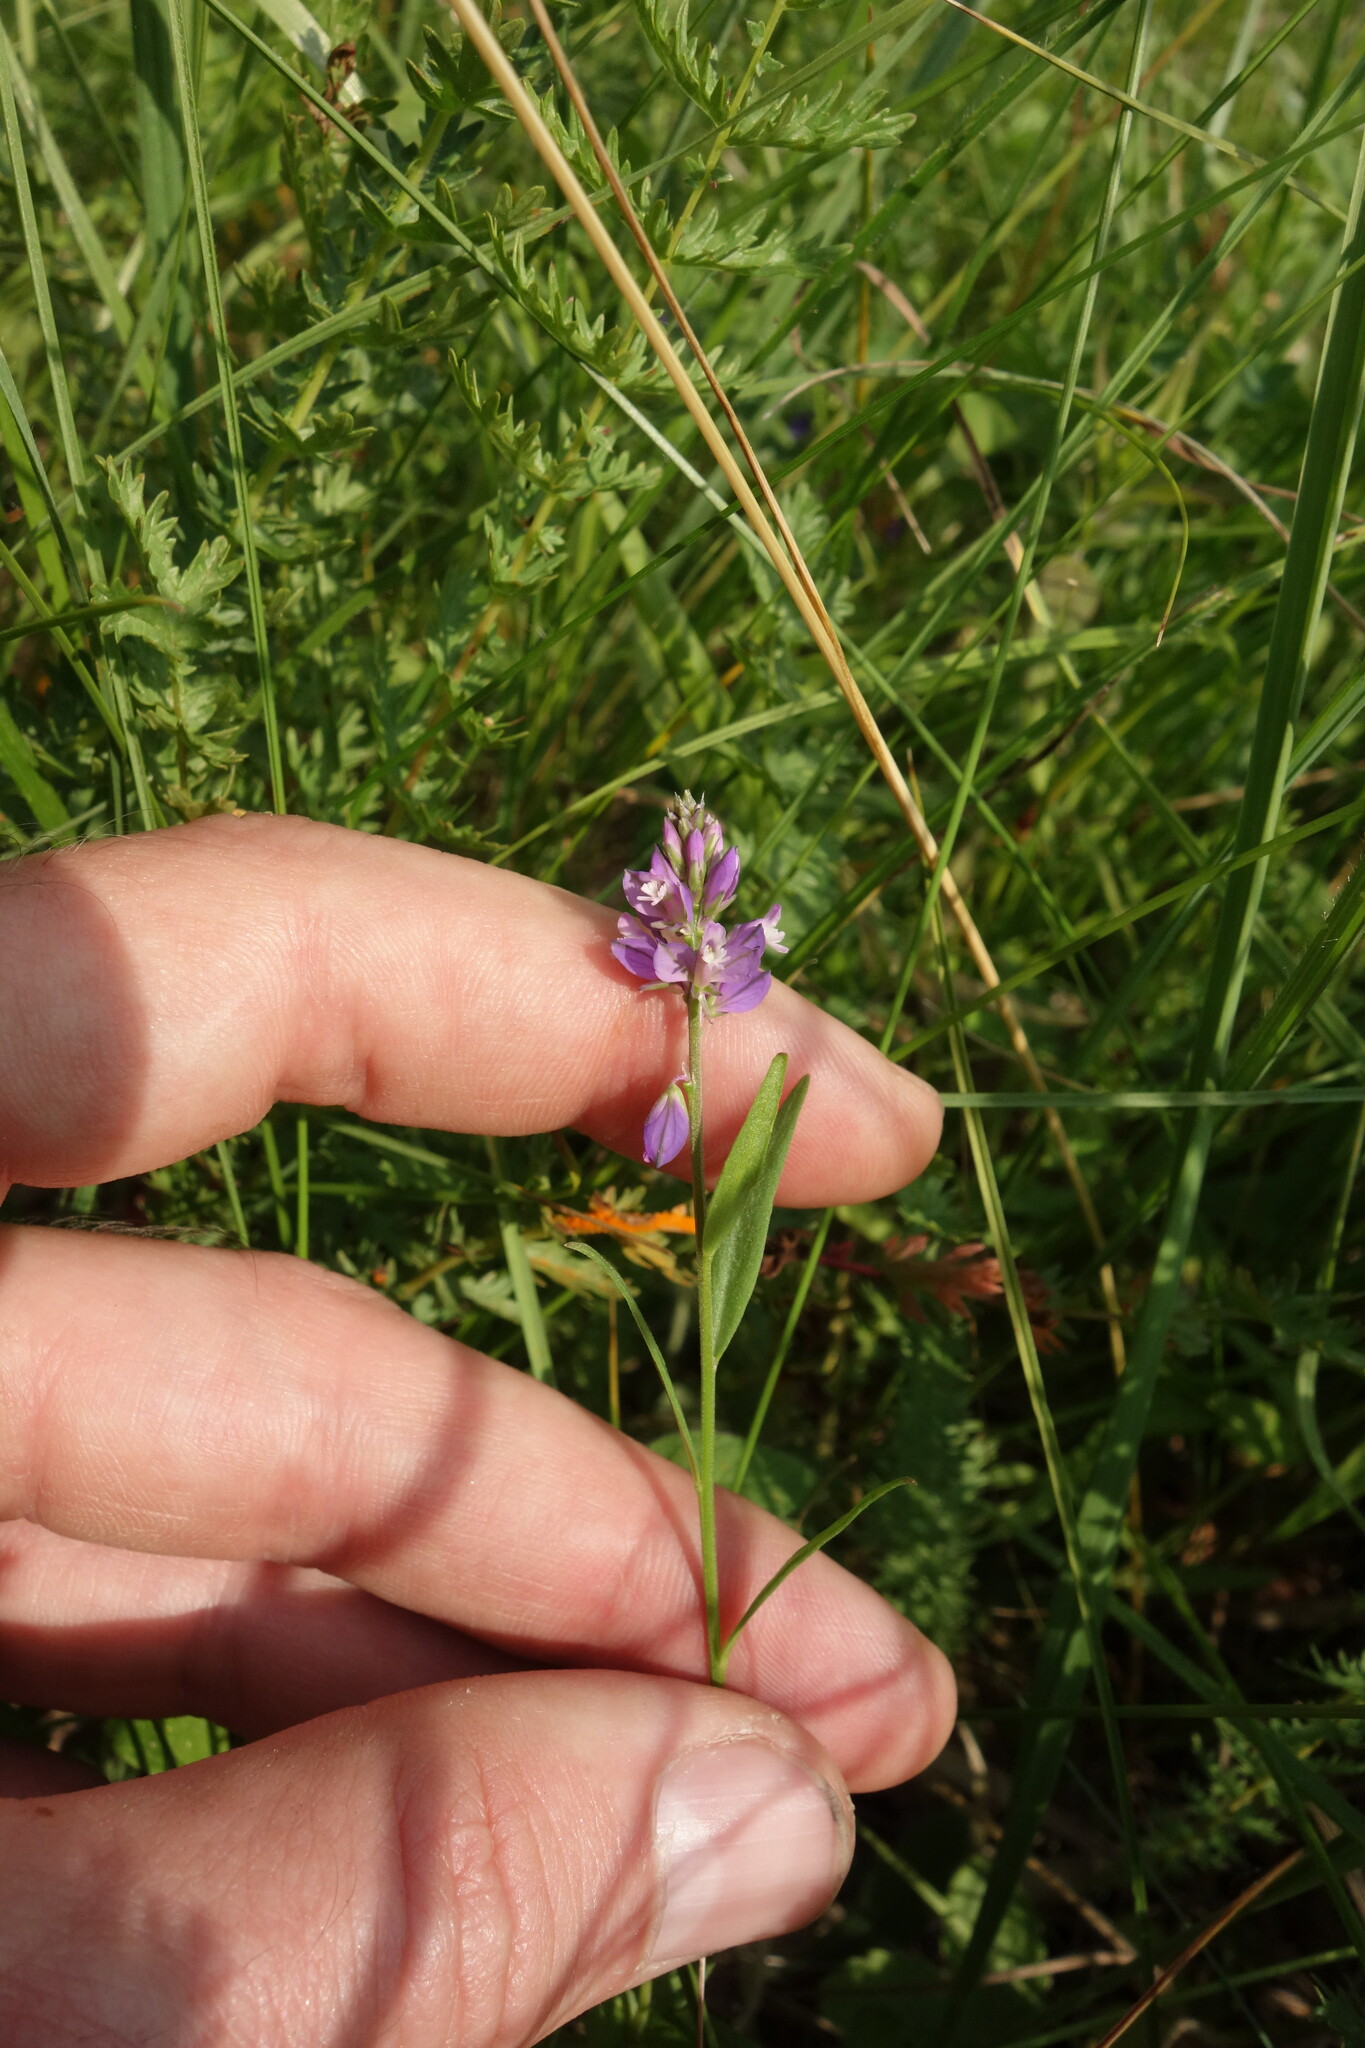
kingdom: Plantae
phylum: Tracheophyta
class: Magnoliopsida
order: Fabales
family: Polygalaceae
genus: Polygala
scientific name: Polygala comosa
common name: Tufted milkwort
